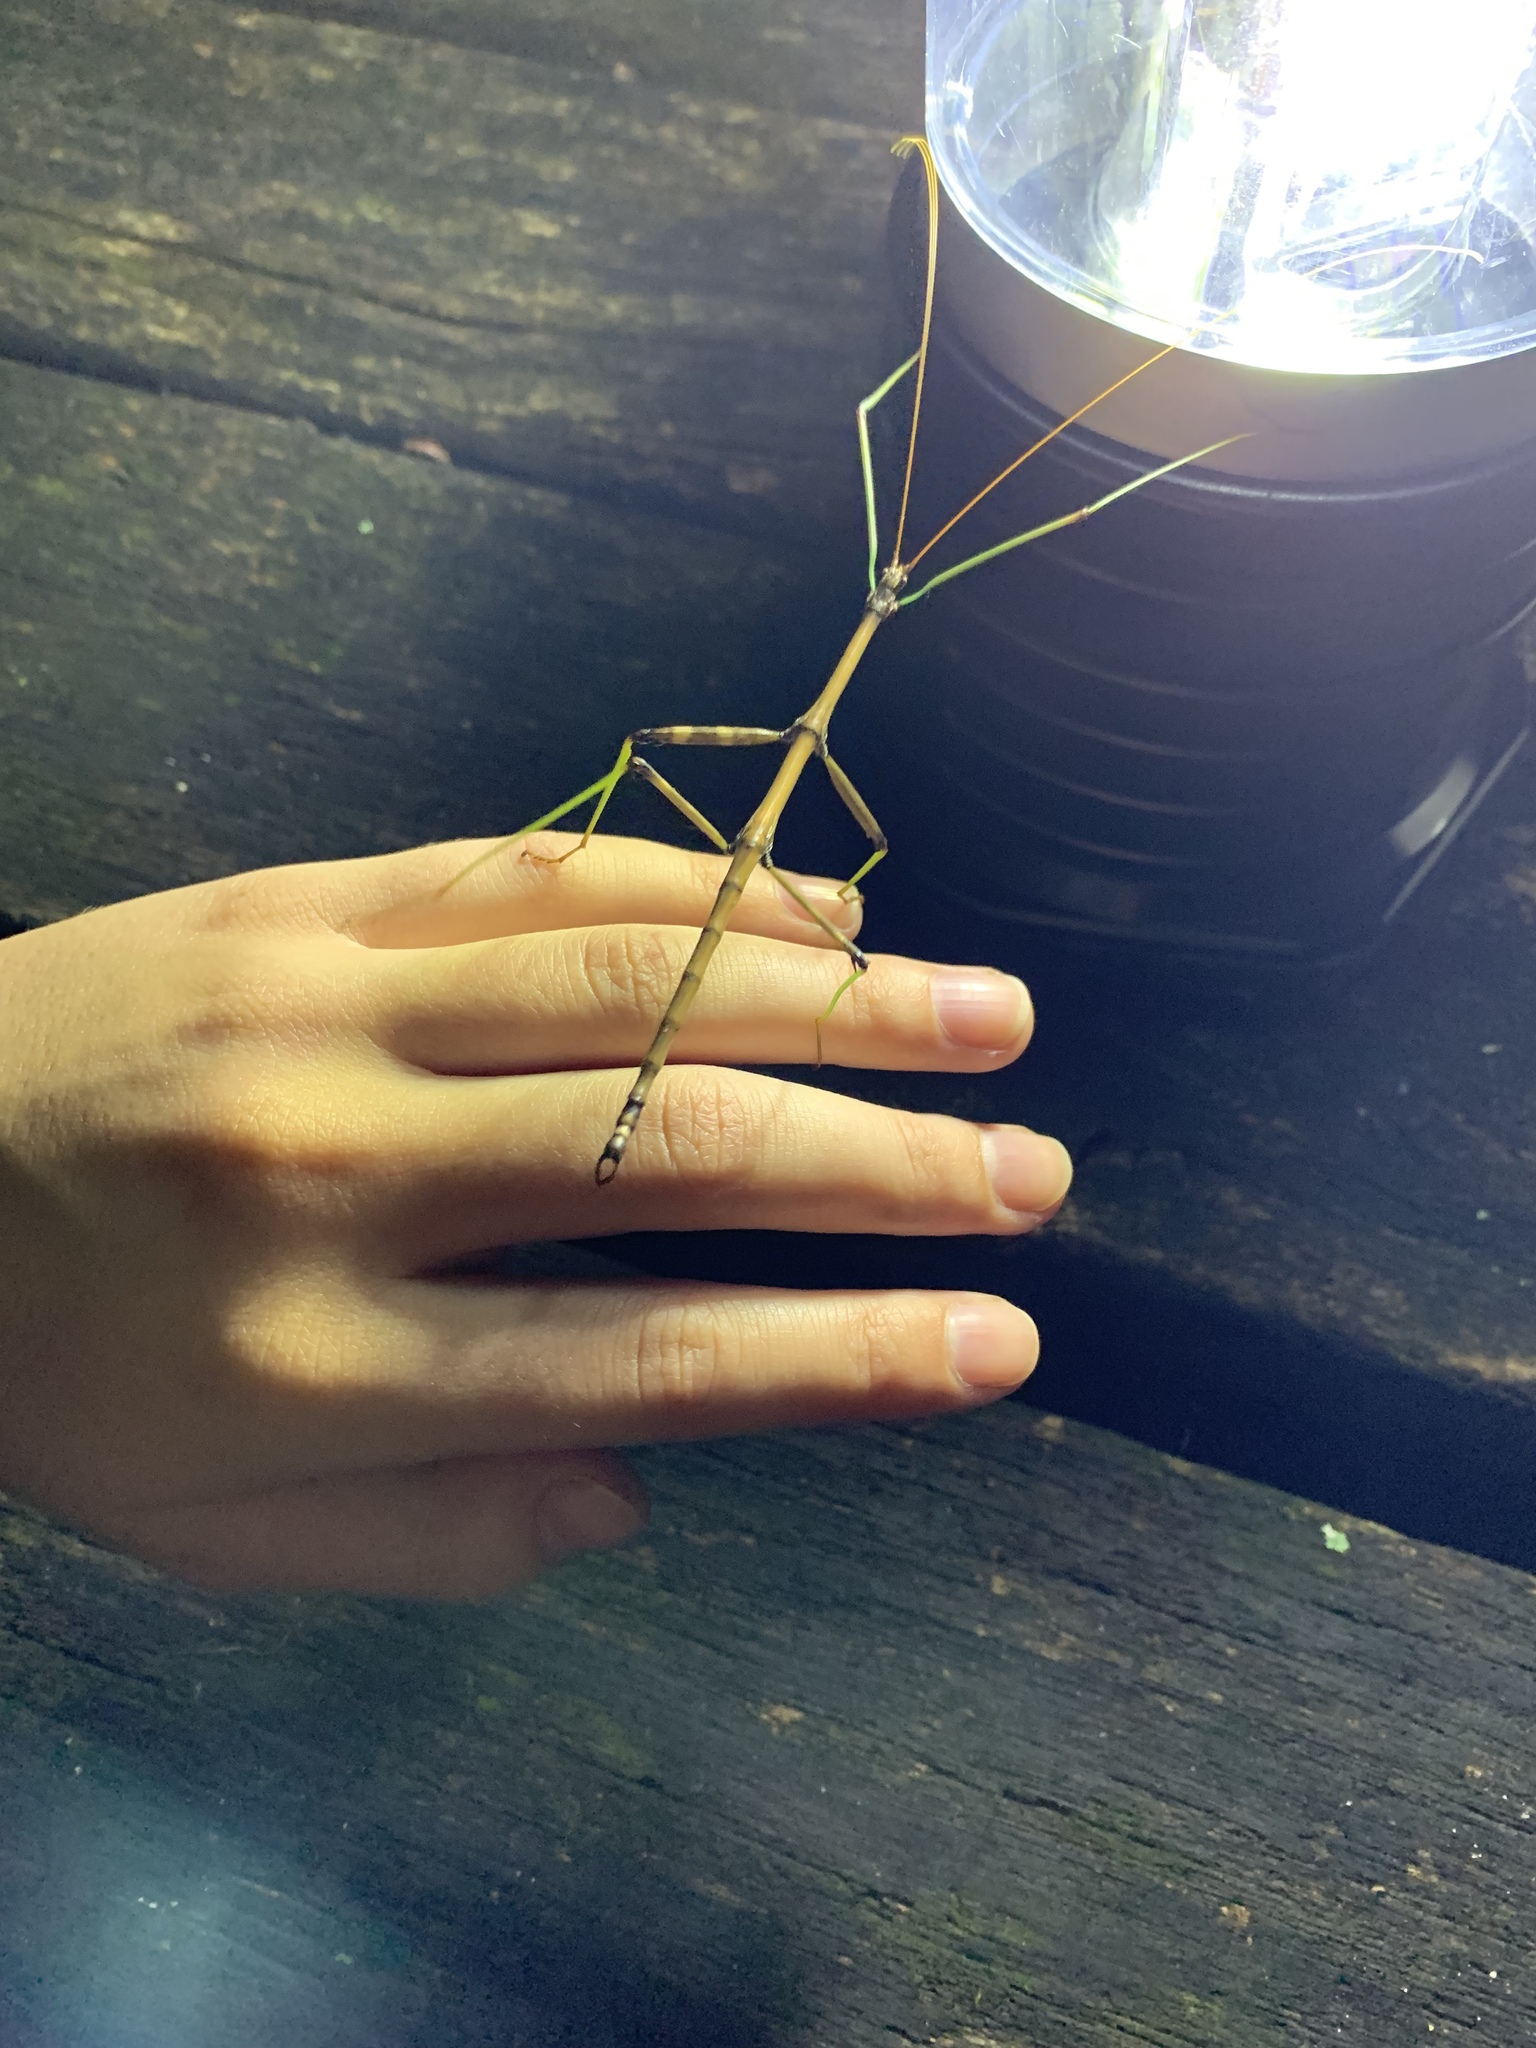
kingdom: Animalia
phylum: Arthropoda
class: Insecta
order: Phasmida
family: Diapheromeridae
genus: Diapheromera
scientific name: Diapheromera femorata
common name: Common american walkingstick
